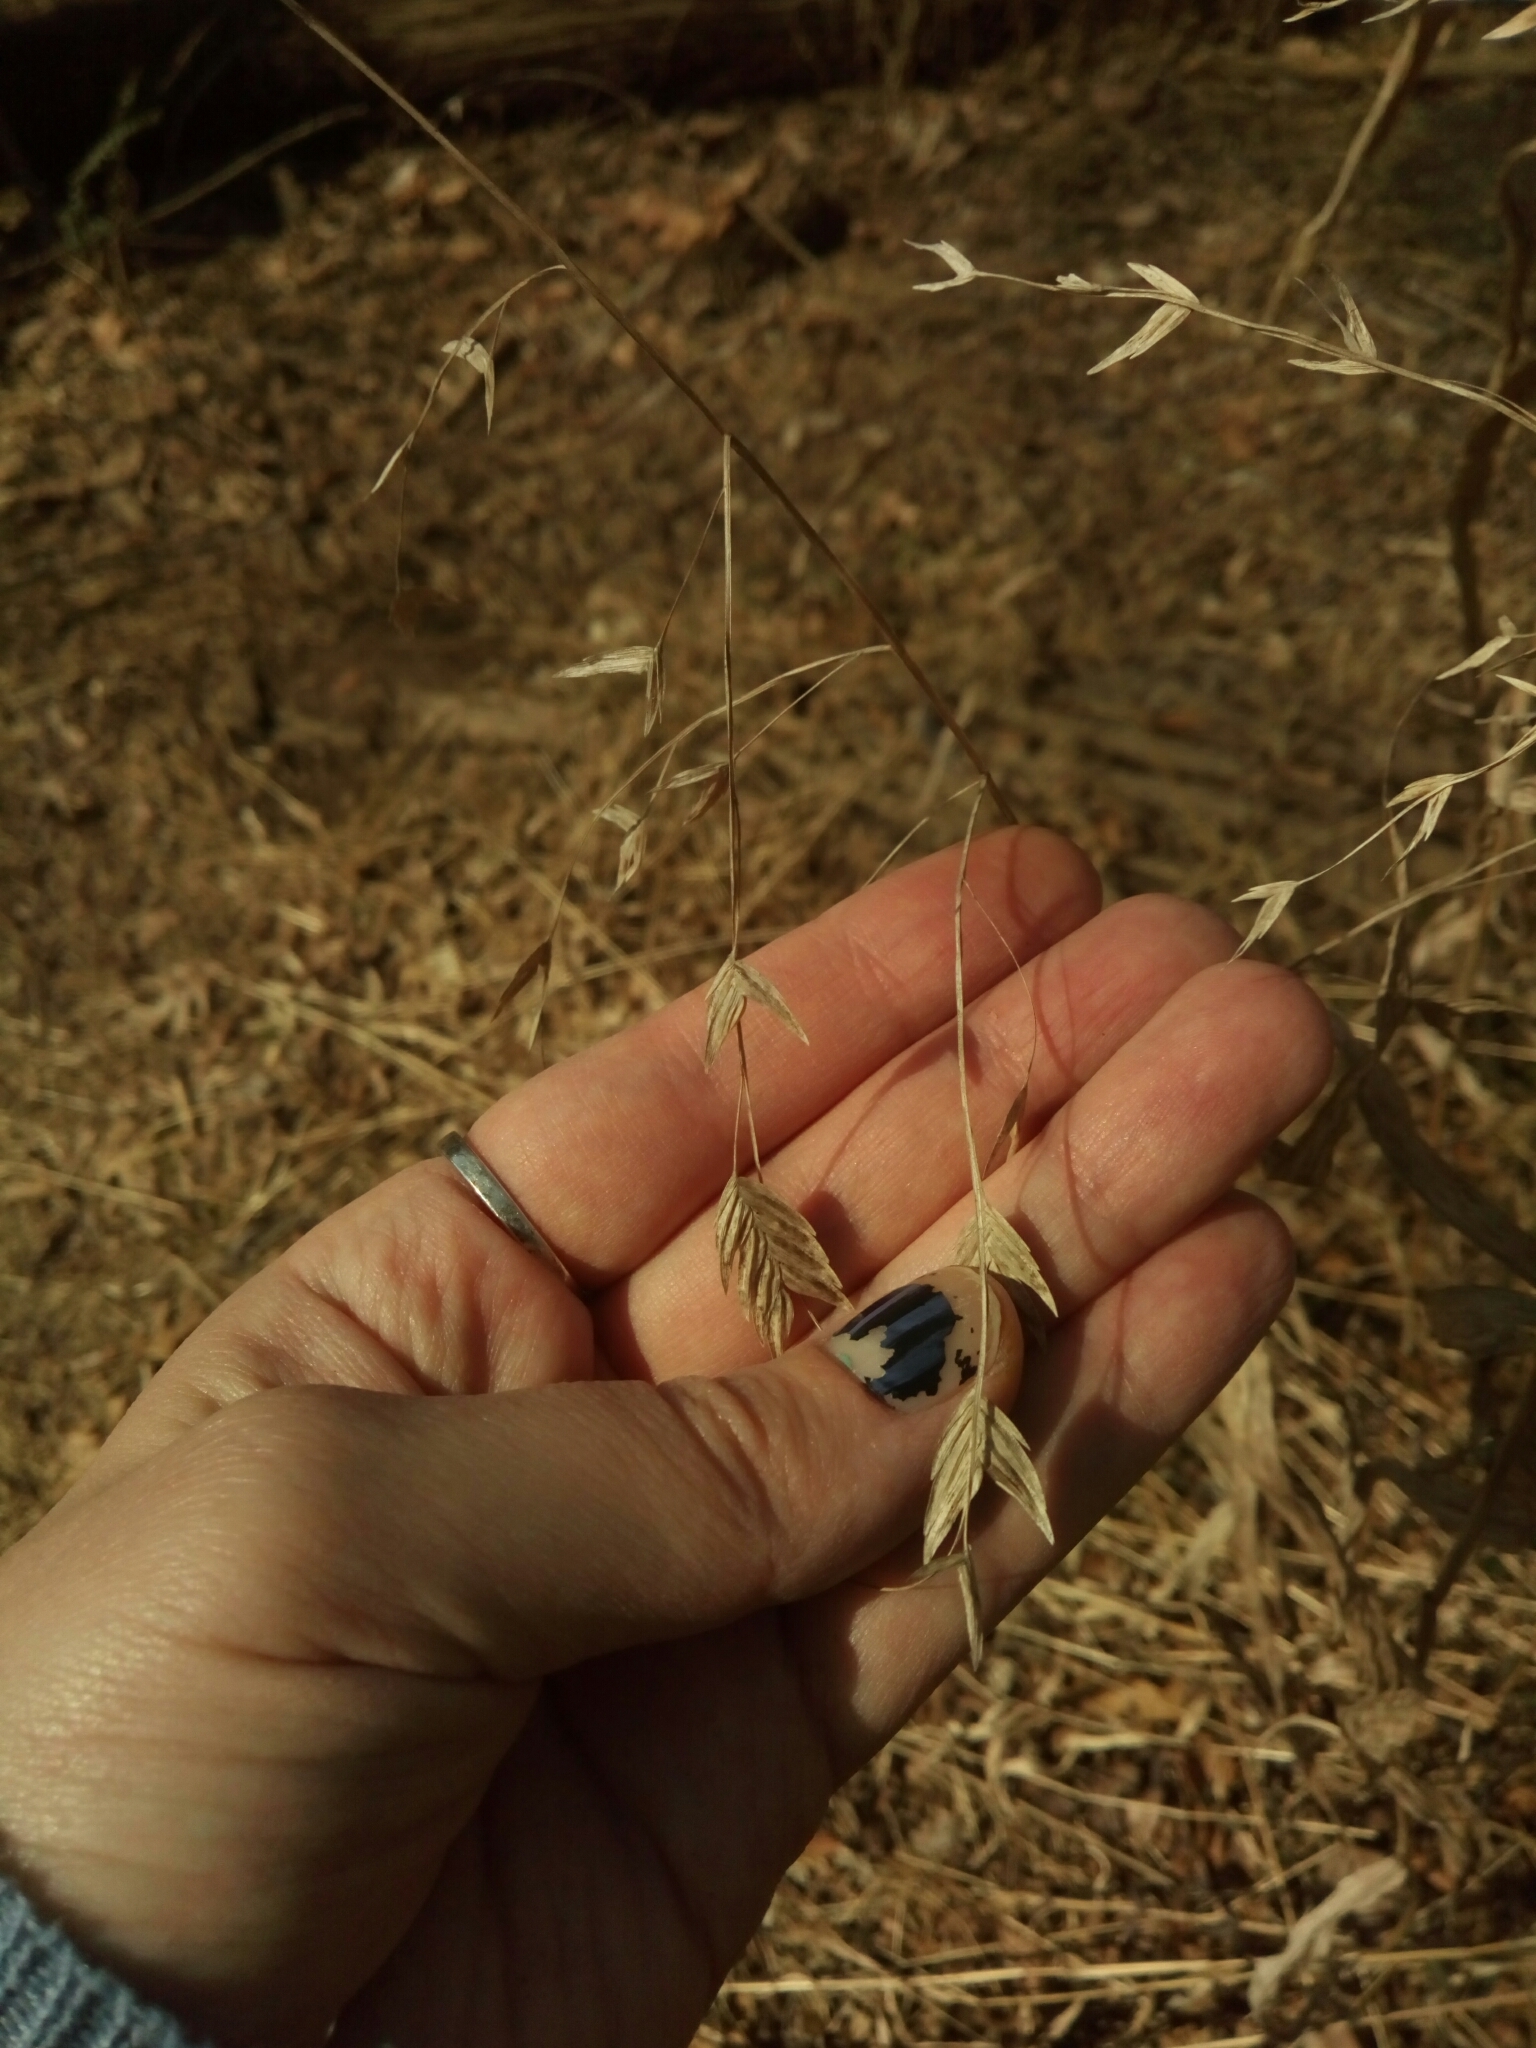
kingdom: Plantae
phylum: Tracheophyta
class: Liliopsida
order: Poales
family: Poaceae
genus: Chasmanthium
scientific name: Chasmanthium latifolium
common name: Broad-leaved chasmanthium
